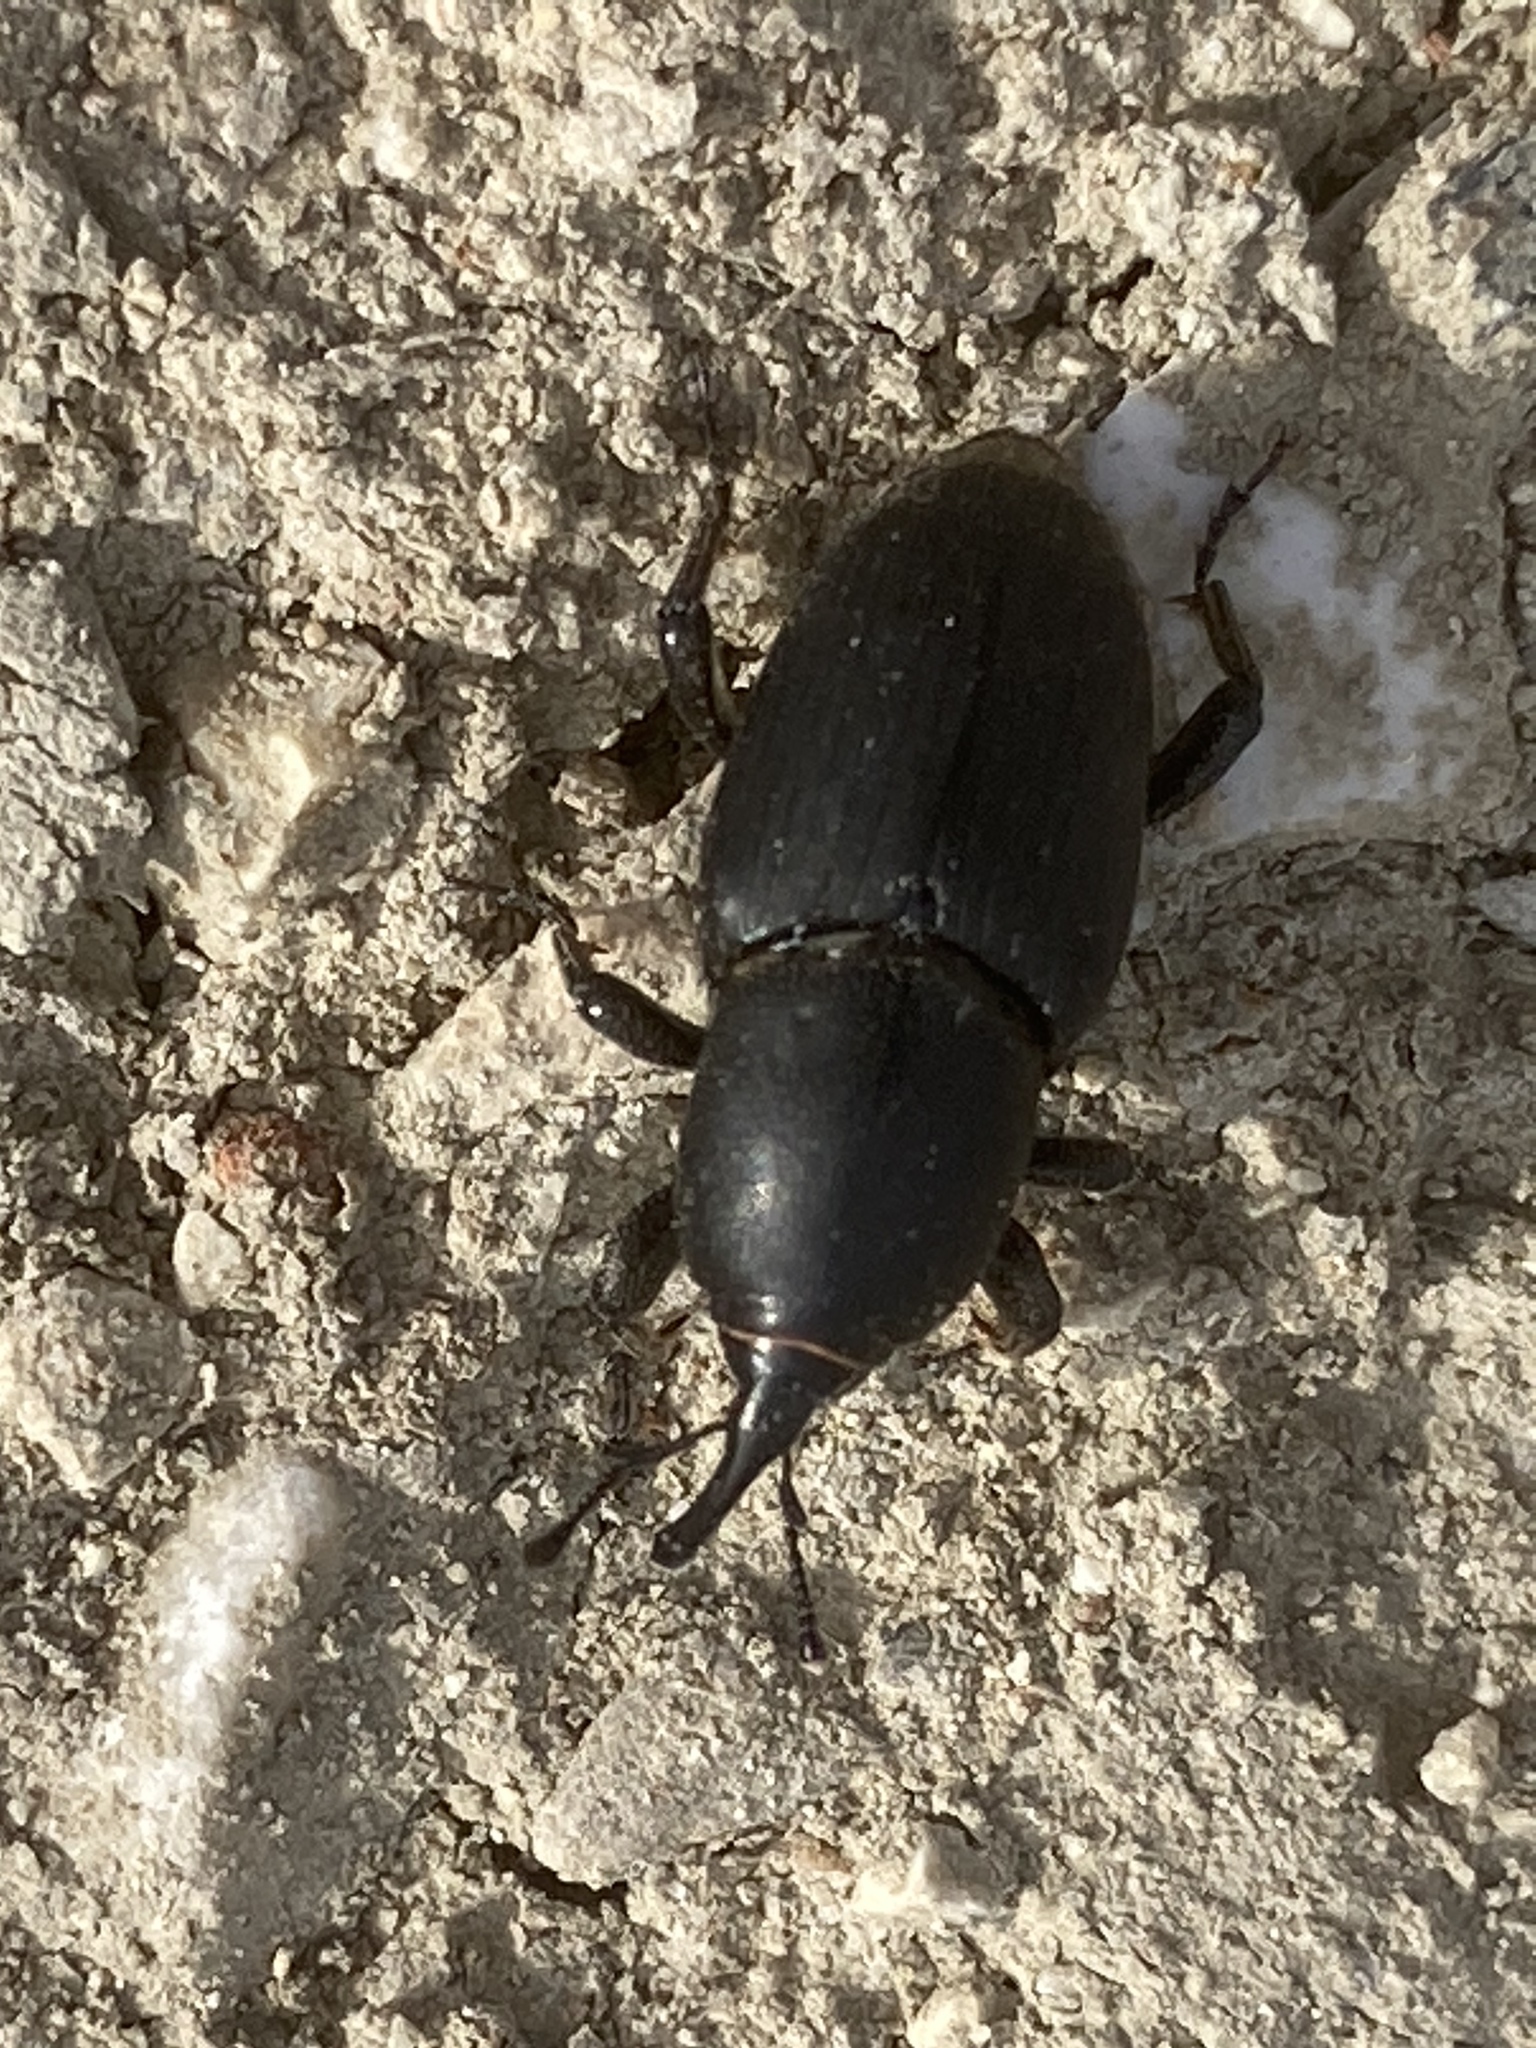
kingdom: Animalia
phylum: Arthropoda
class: Insecta
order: Coleoptera
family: Dryophthoridae
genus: Scyphophorus
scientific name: Scyphophorus acupunctatus
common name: Weevil
